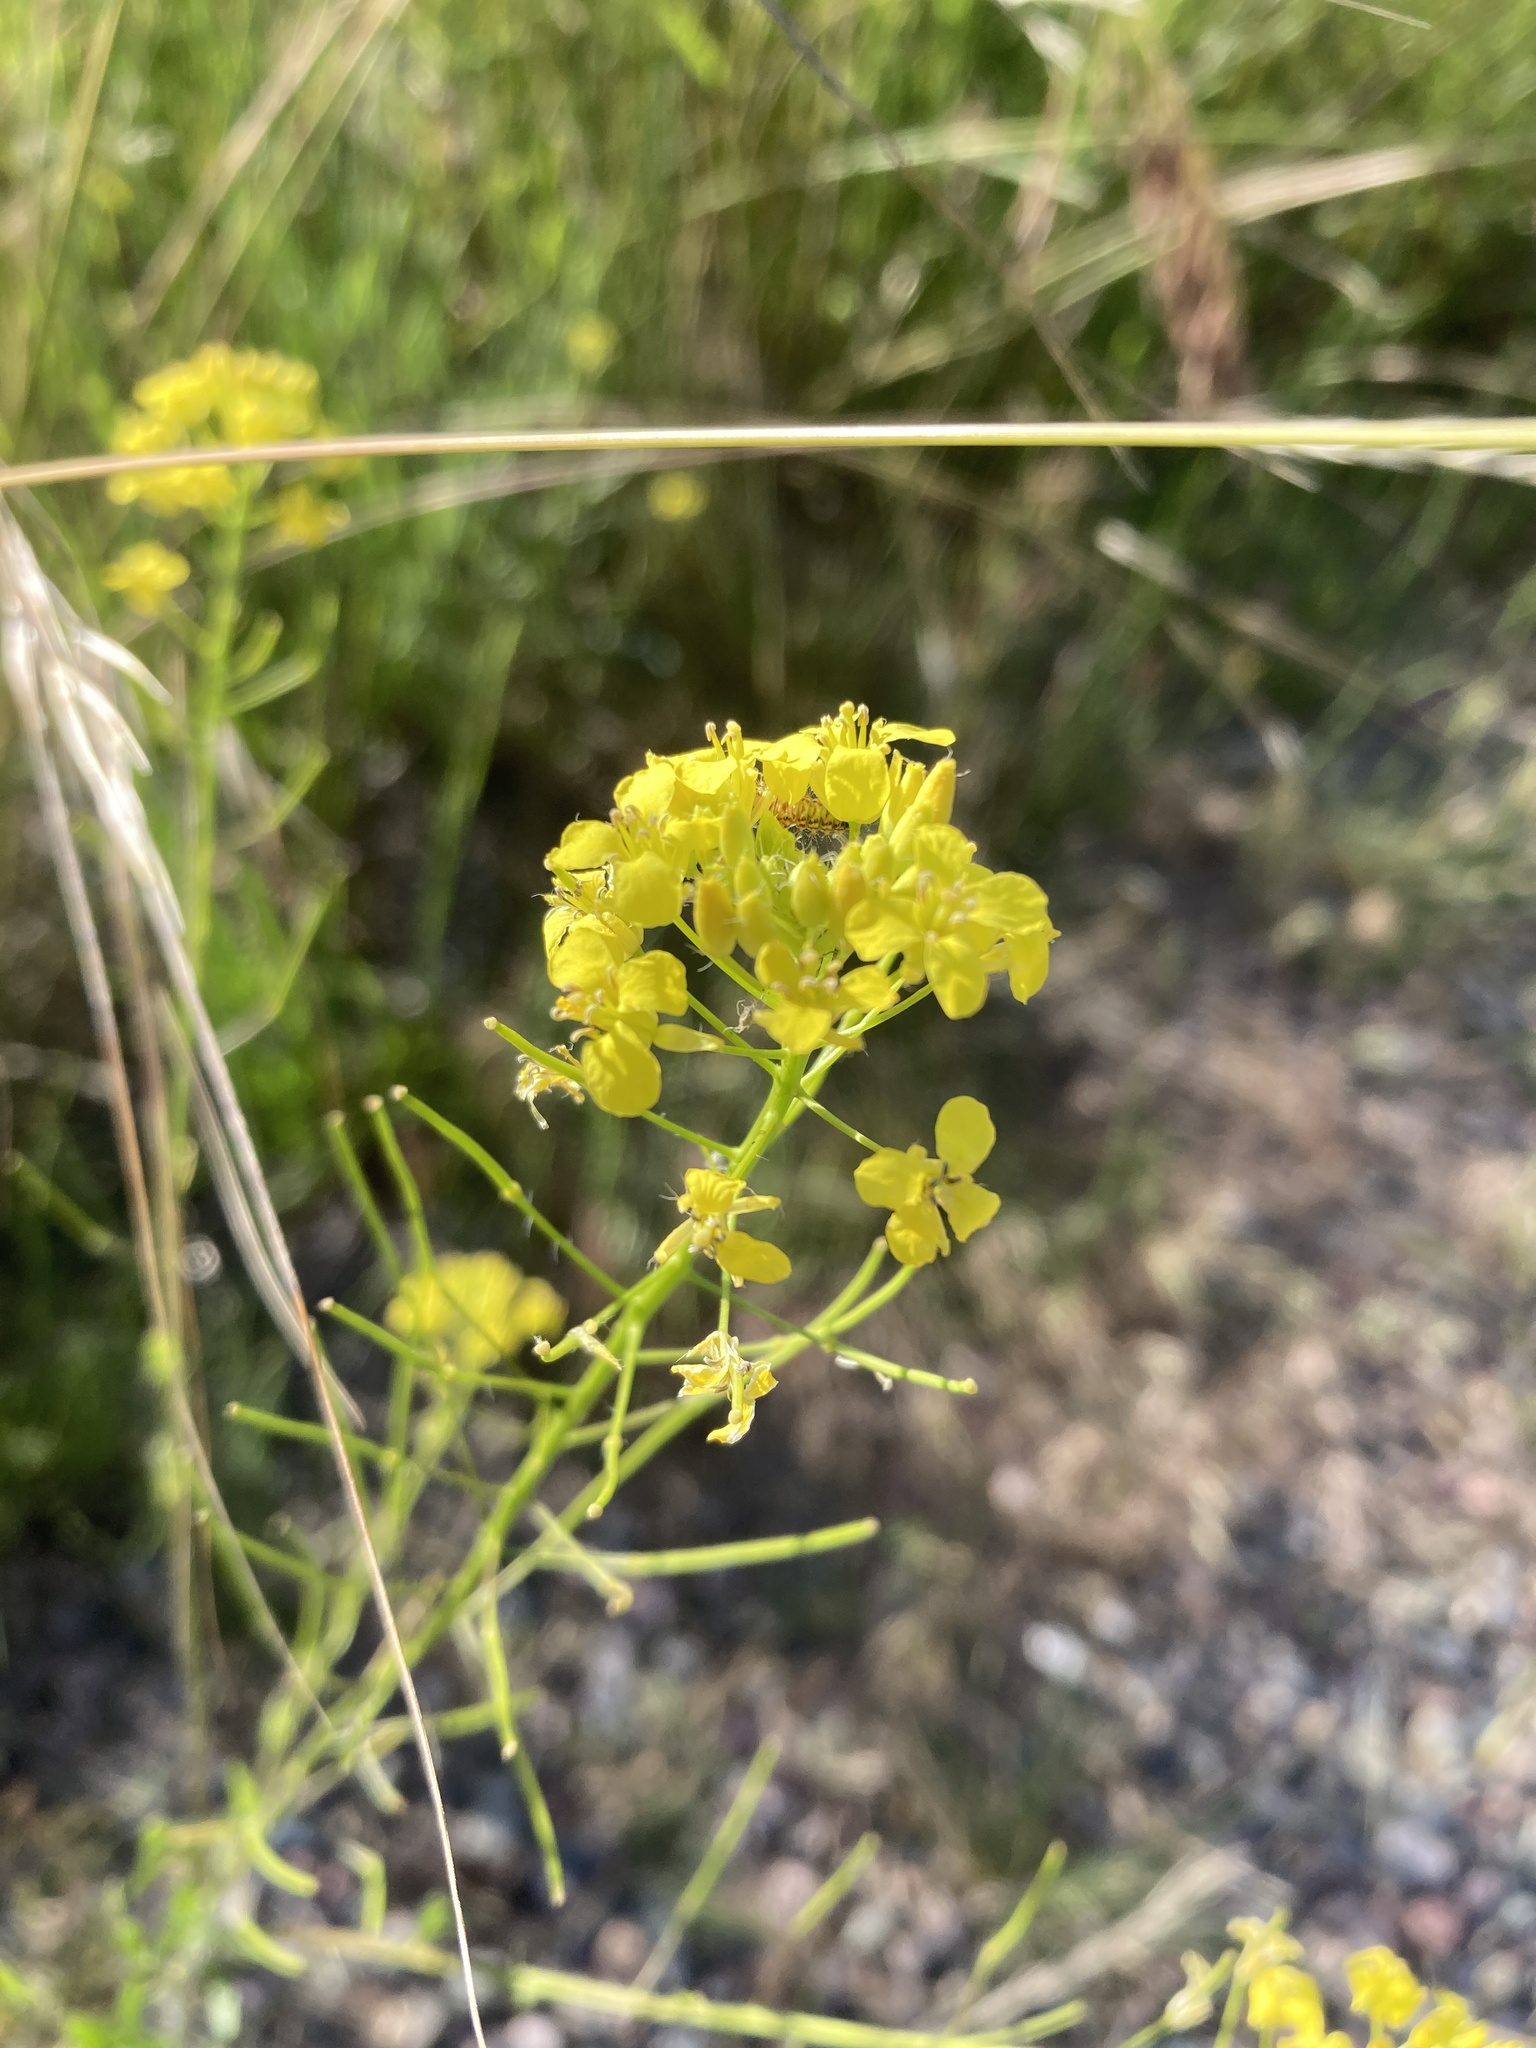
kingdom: Plantae
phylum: Tracheophyta
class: Magnoliopsida
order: Brassicales
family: Brassicaceae
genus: Sisymbrium
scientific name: Sisymbrium loeselii
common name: False london-rocket
